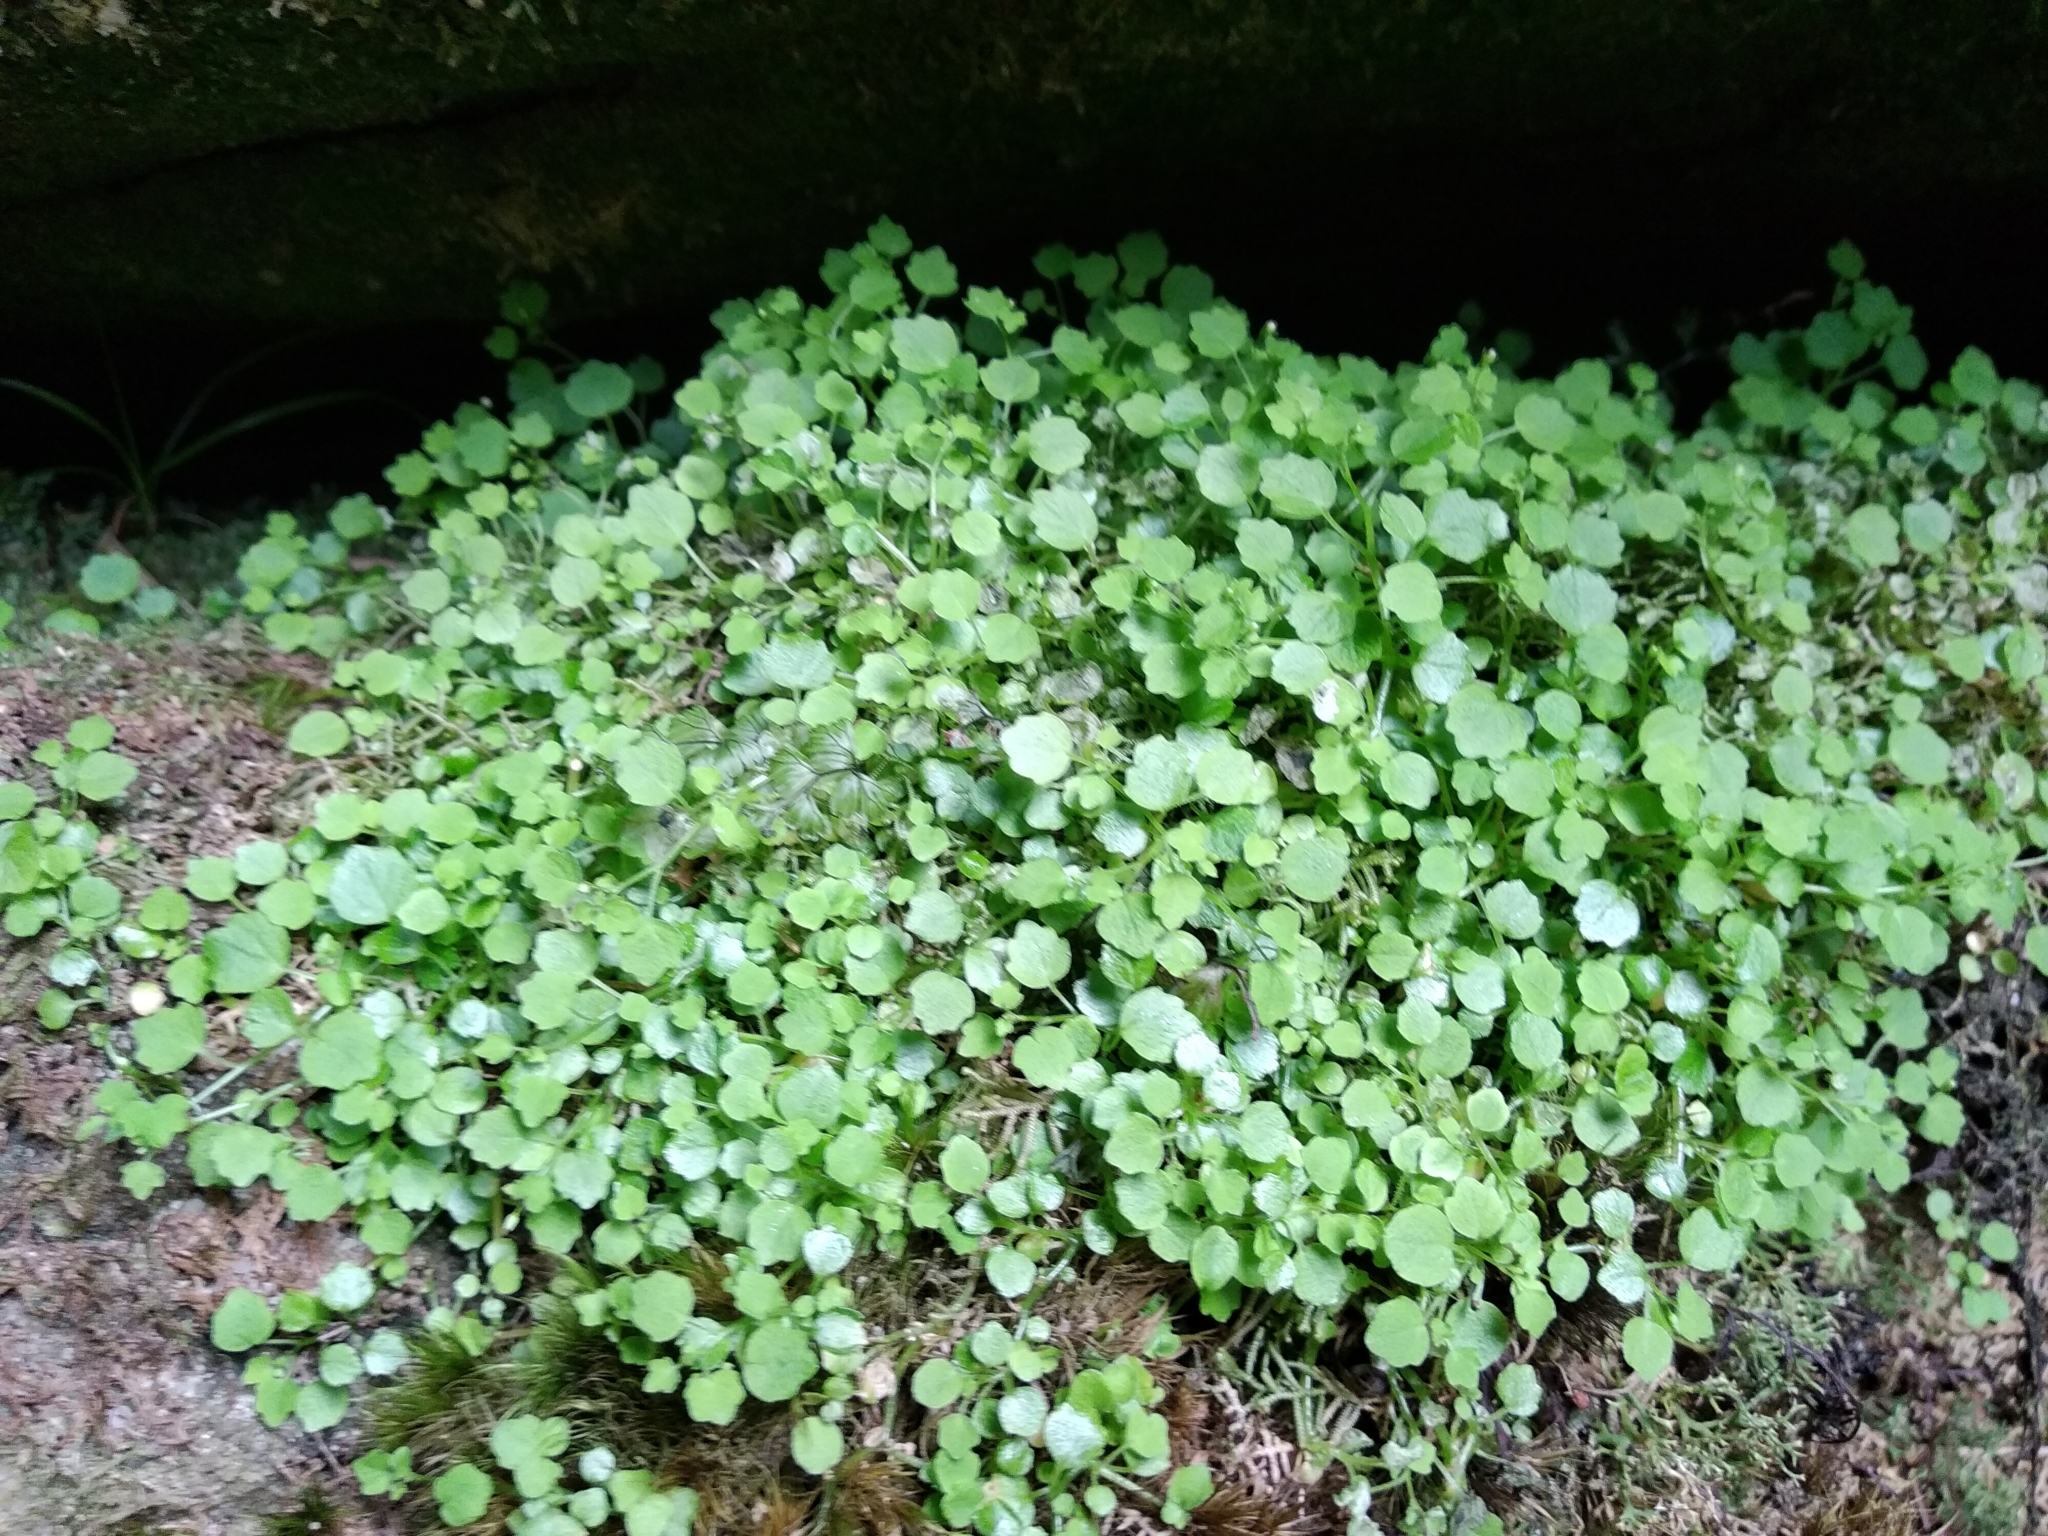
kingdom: Plantae
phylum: Tracheophyta
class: Magnoliopsida
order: Asterales
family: Campanulaceae
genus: Wimmerella
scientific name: Wimmerella pygmaea
